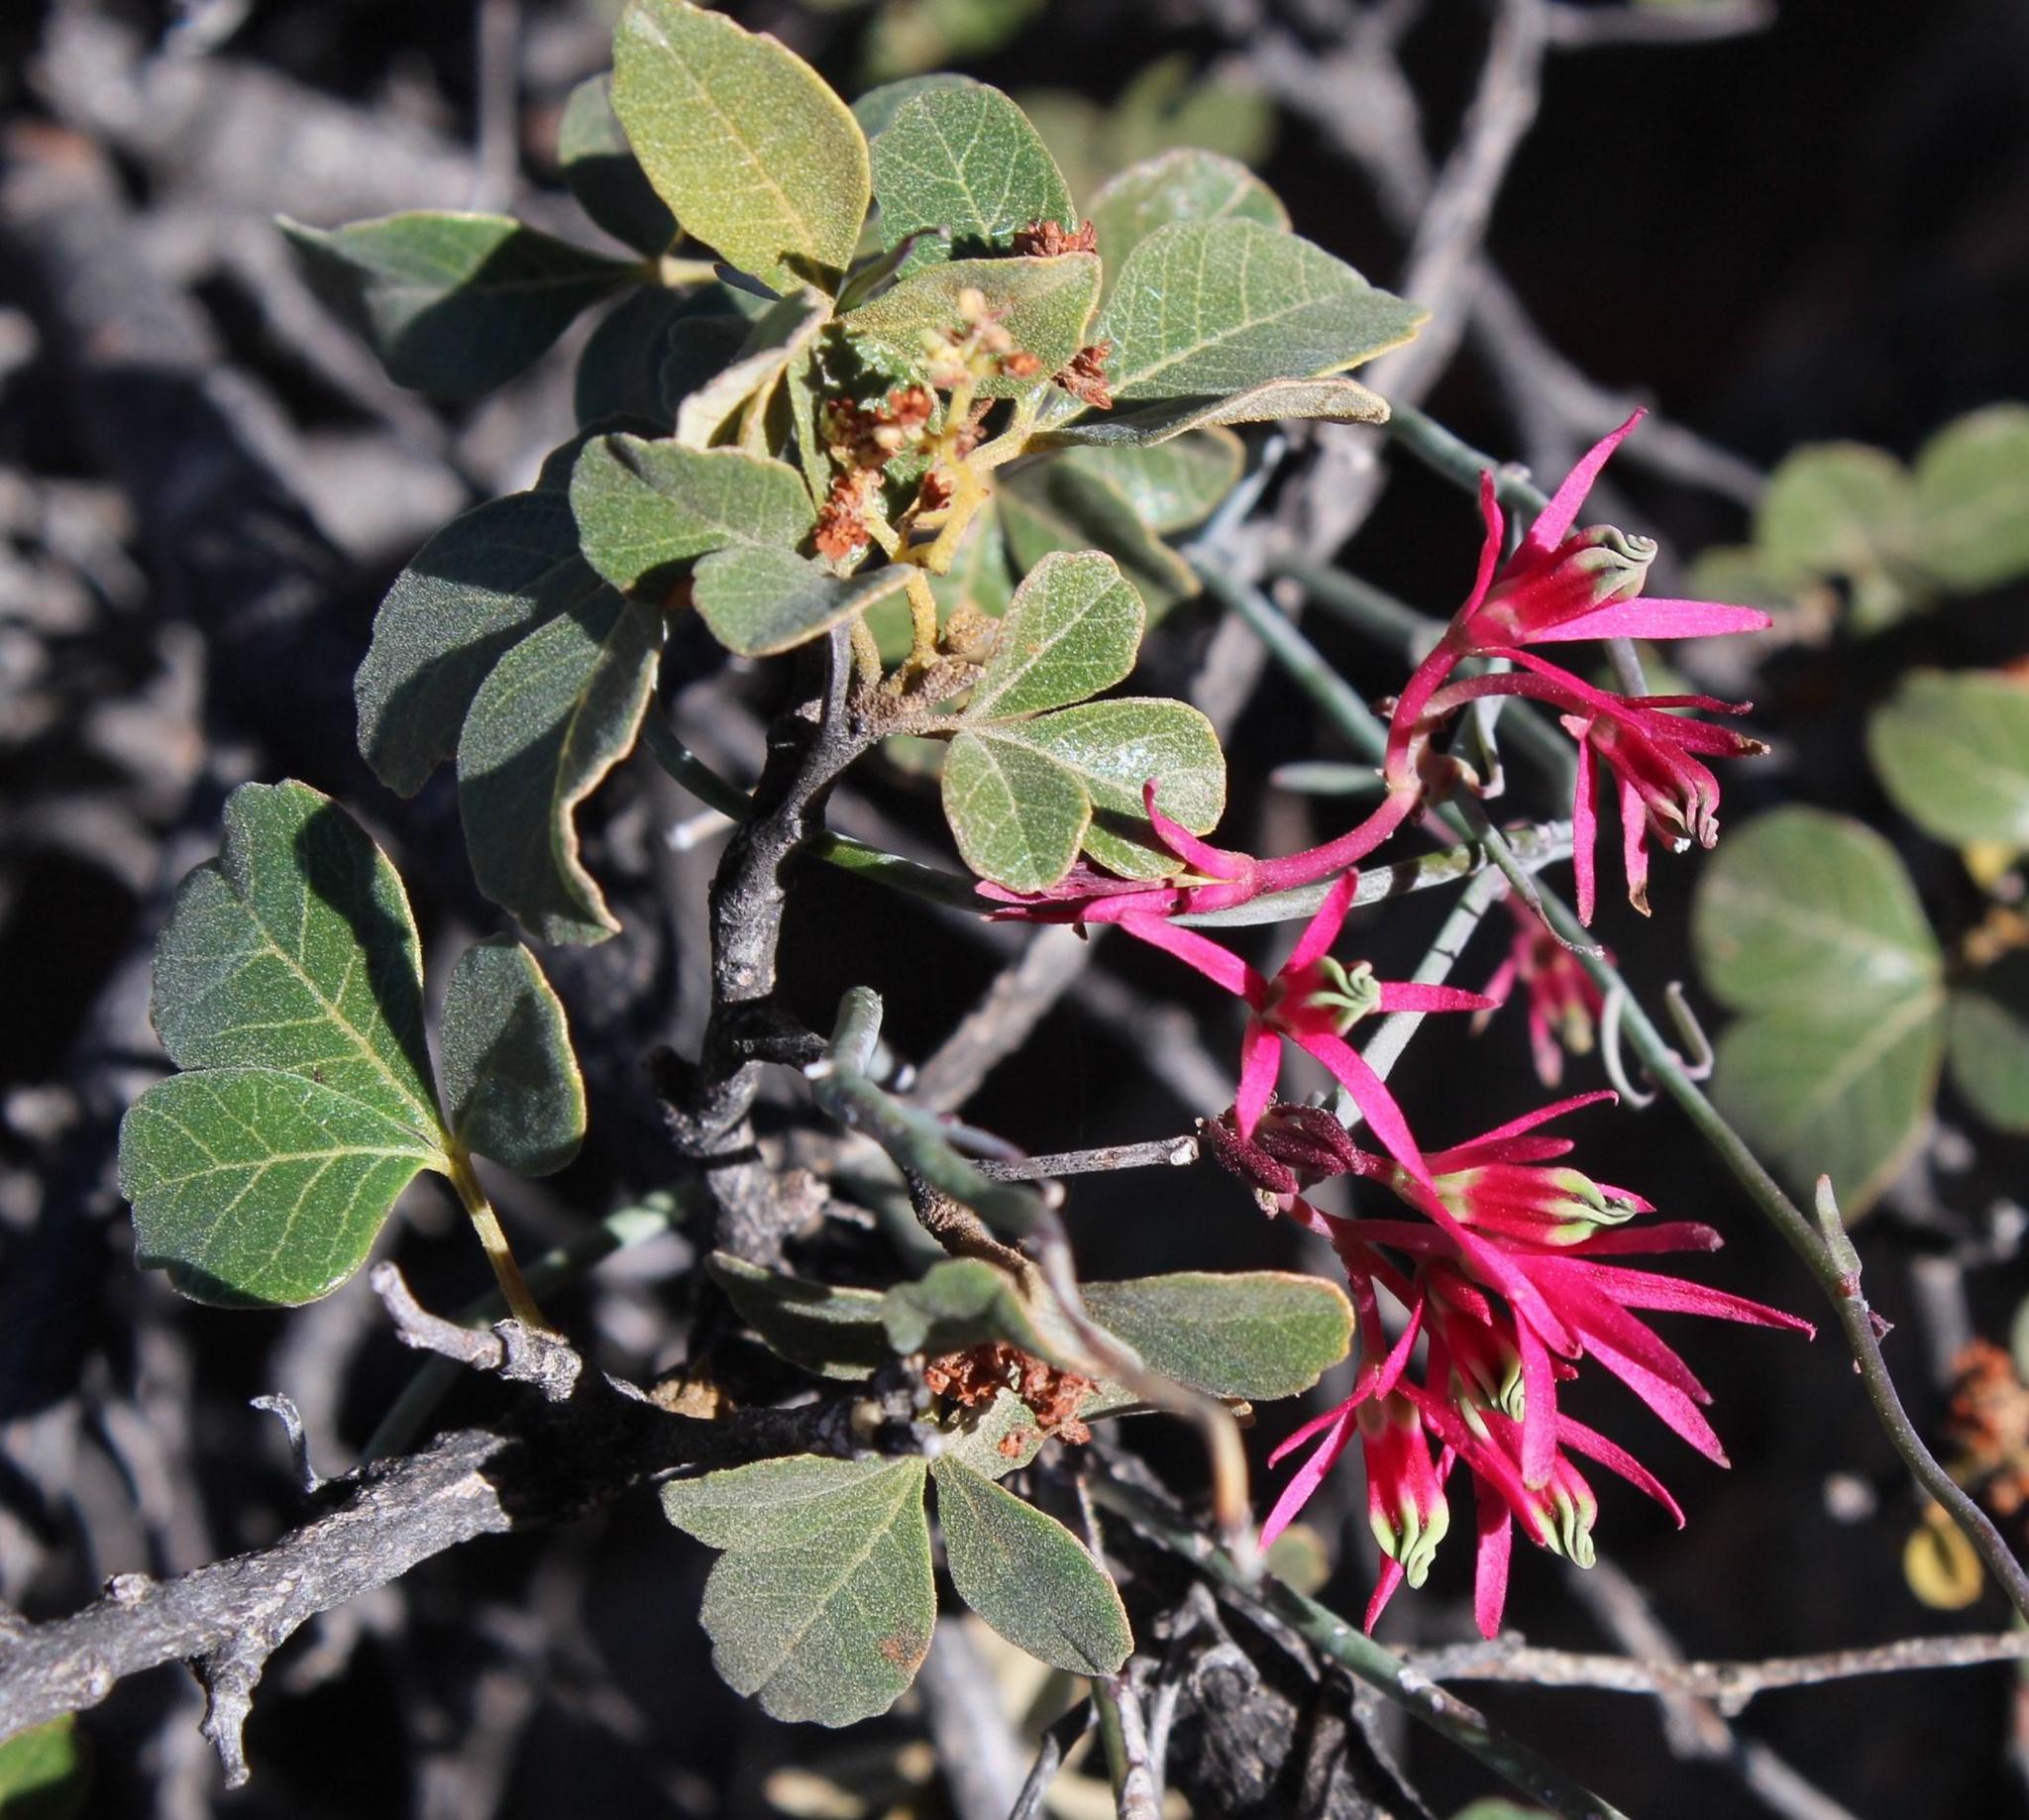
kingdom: Plantae
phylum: Tracheophyta
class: Magnoliopsida
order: Sapindales
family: Anacardiaceae
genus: Searsia
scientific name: Searsia populifolia
